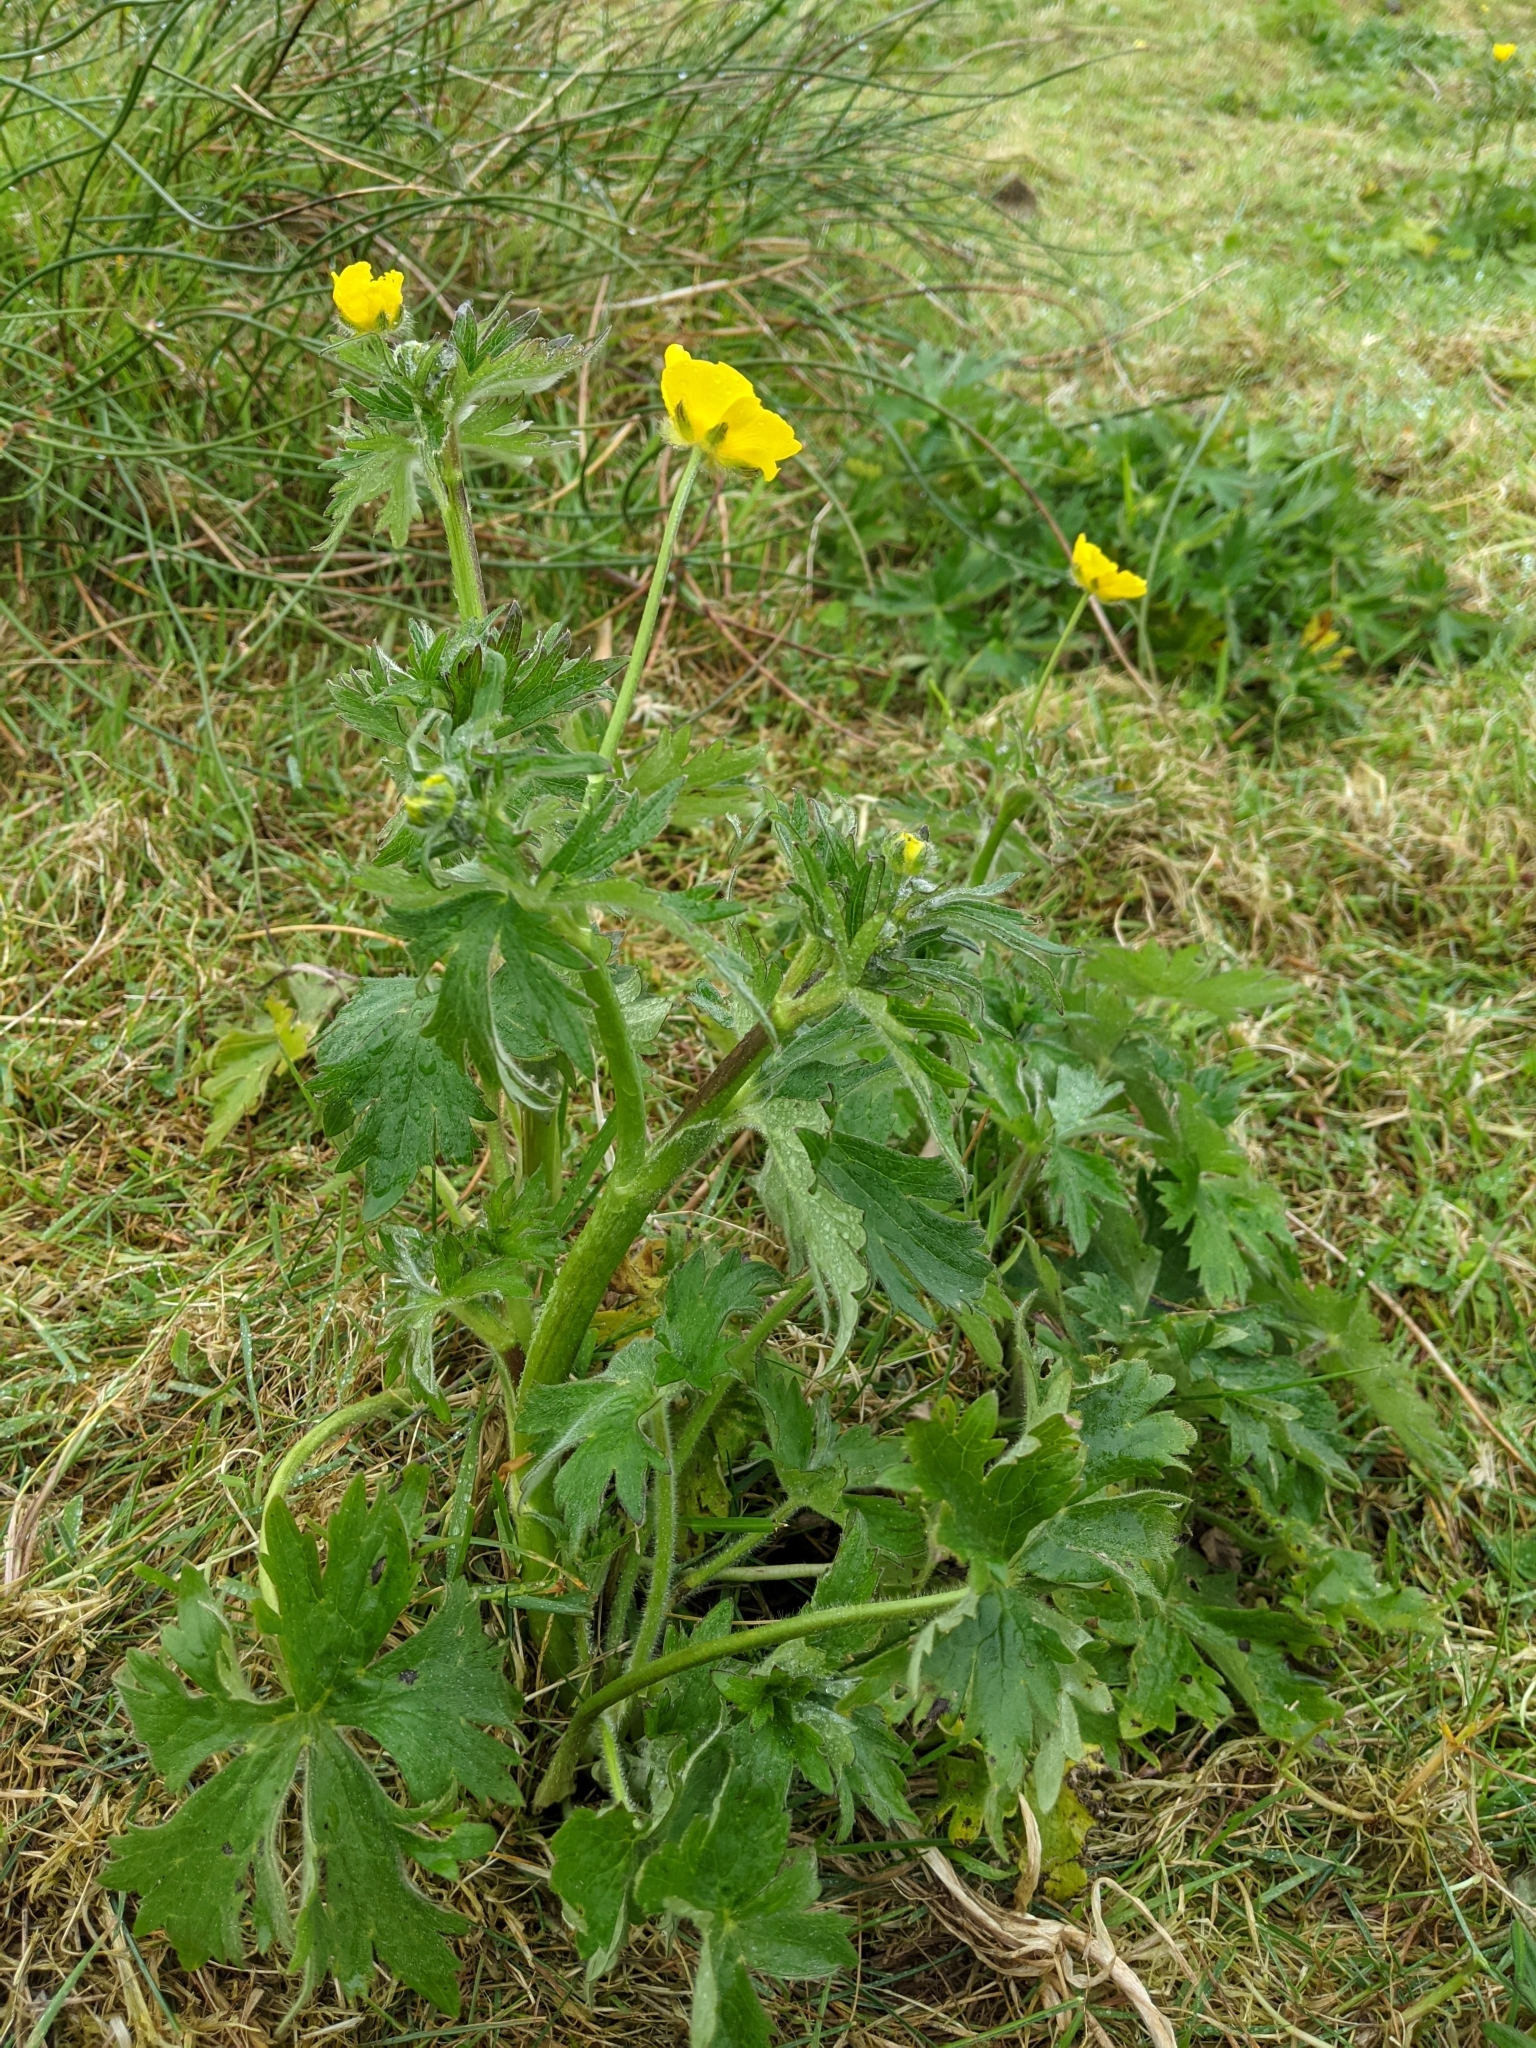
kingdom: Plantae
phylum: Tracheophyta
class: Magnoliopsida
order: Ranunculales
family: Ranunculaceae
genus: Ranunculus
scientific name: Ranunculus acris
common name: Meadow buttercup
